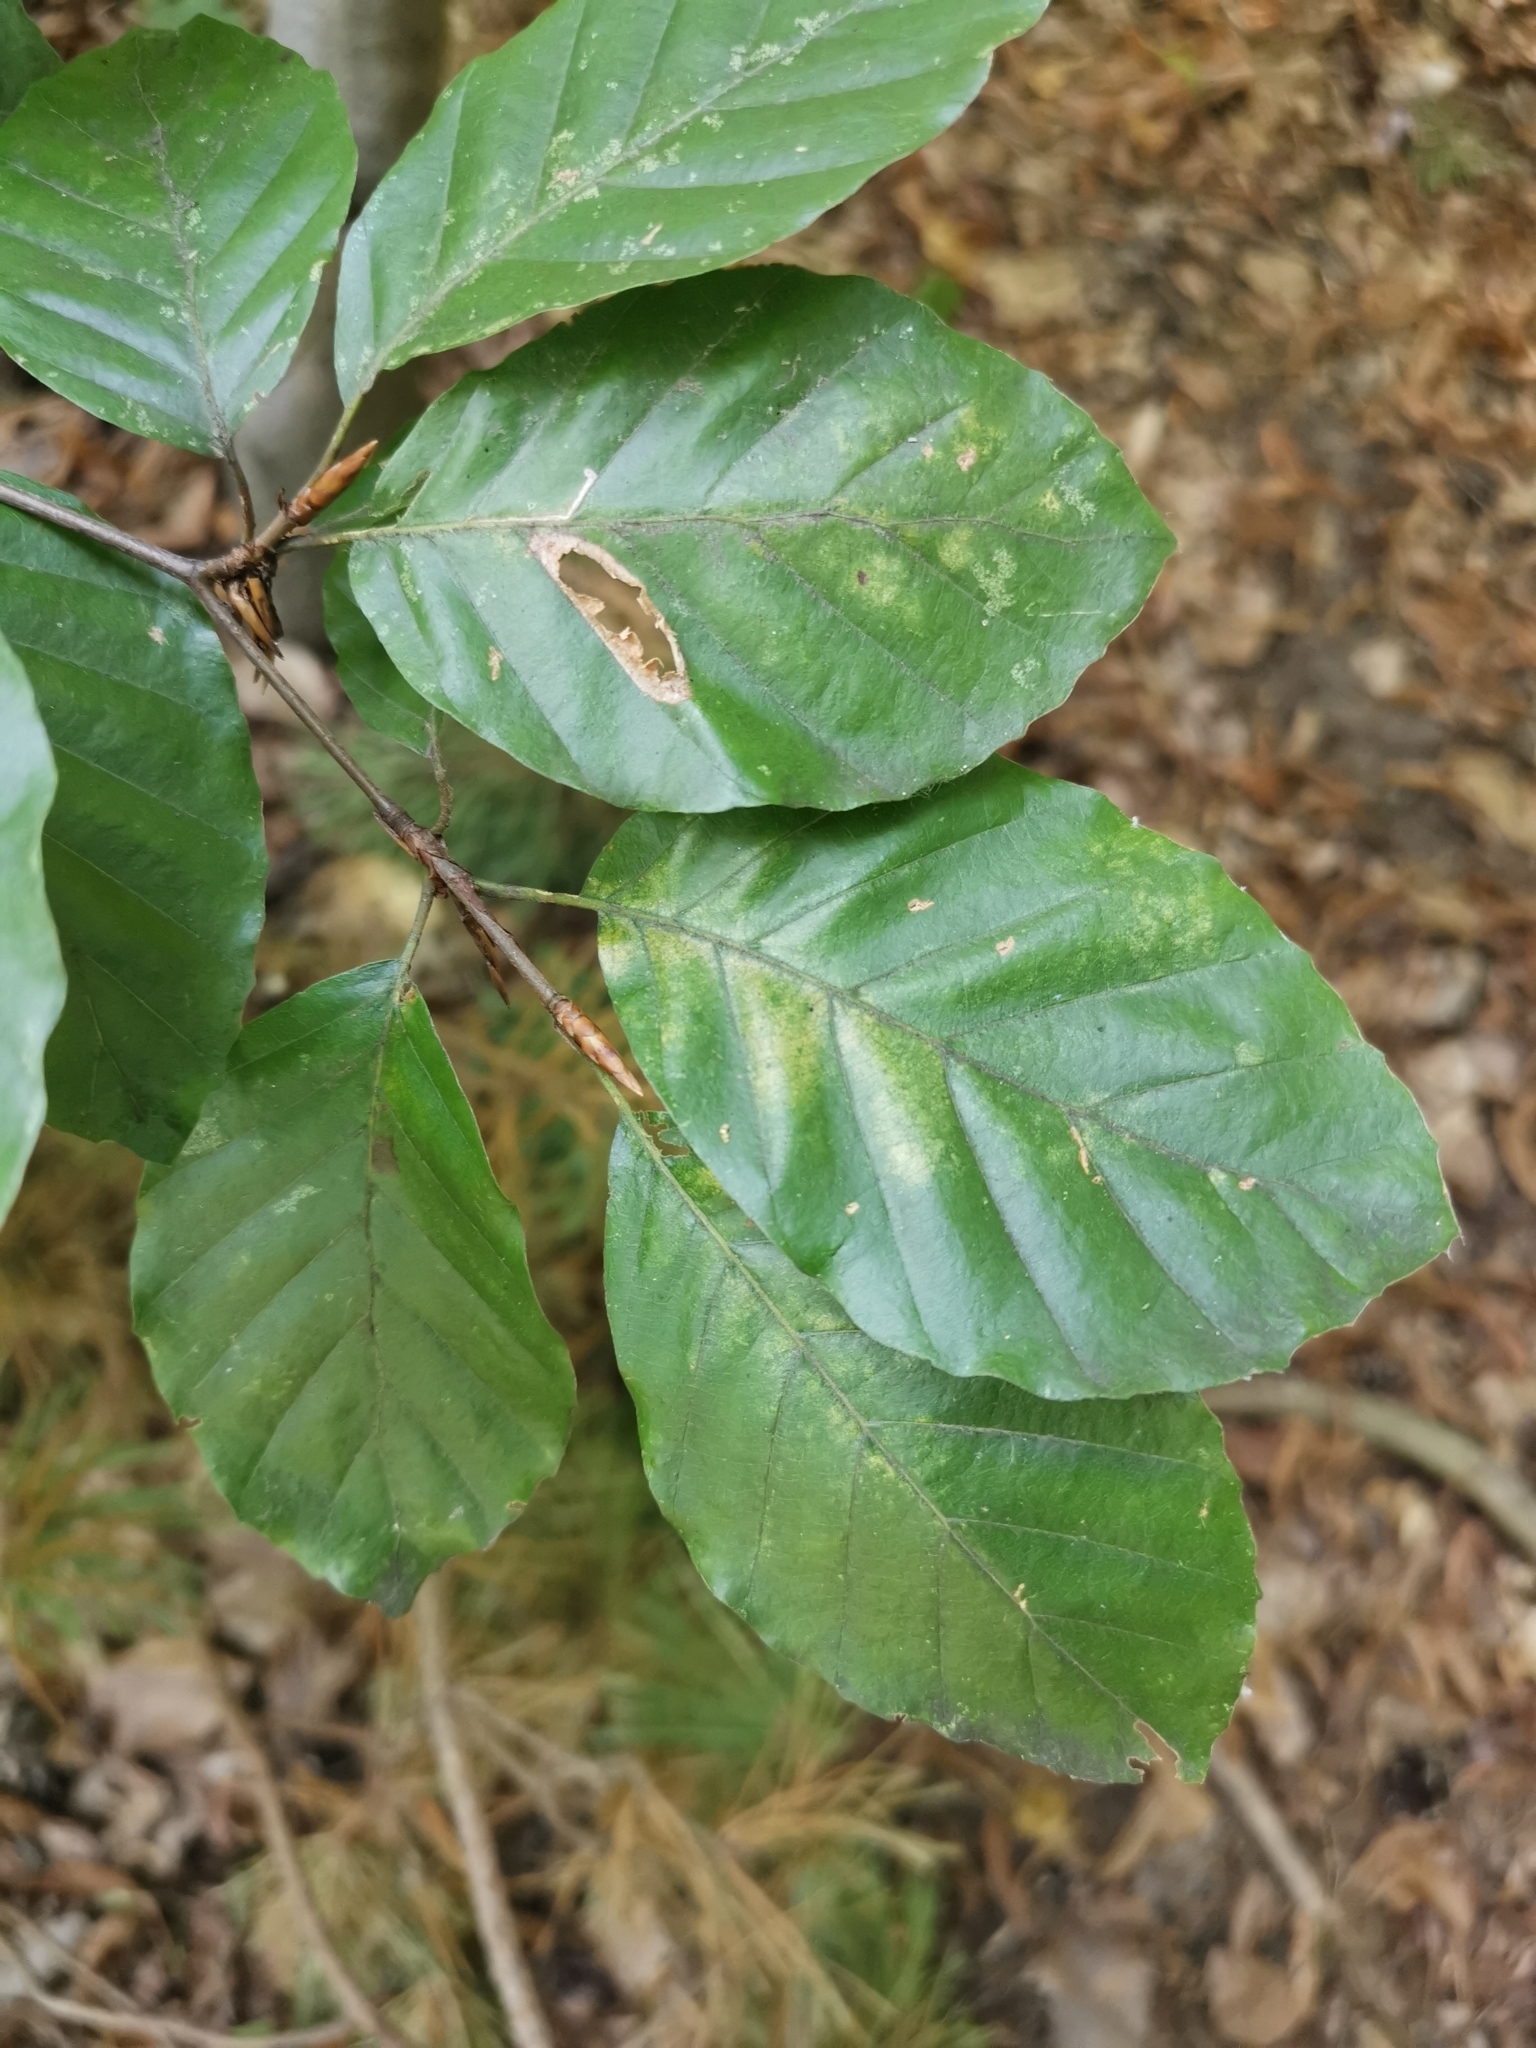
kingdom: Plantae
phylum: Tracheophyta
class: Magnoliopsida
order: Fagales
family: Fagaceae
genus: Fagus
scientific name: Fagus sylvatica
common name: Beech
